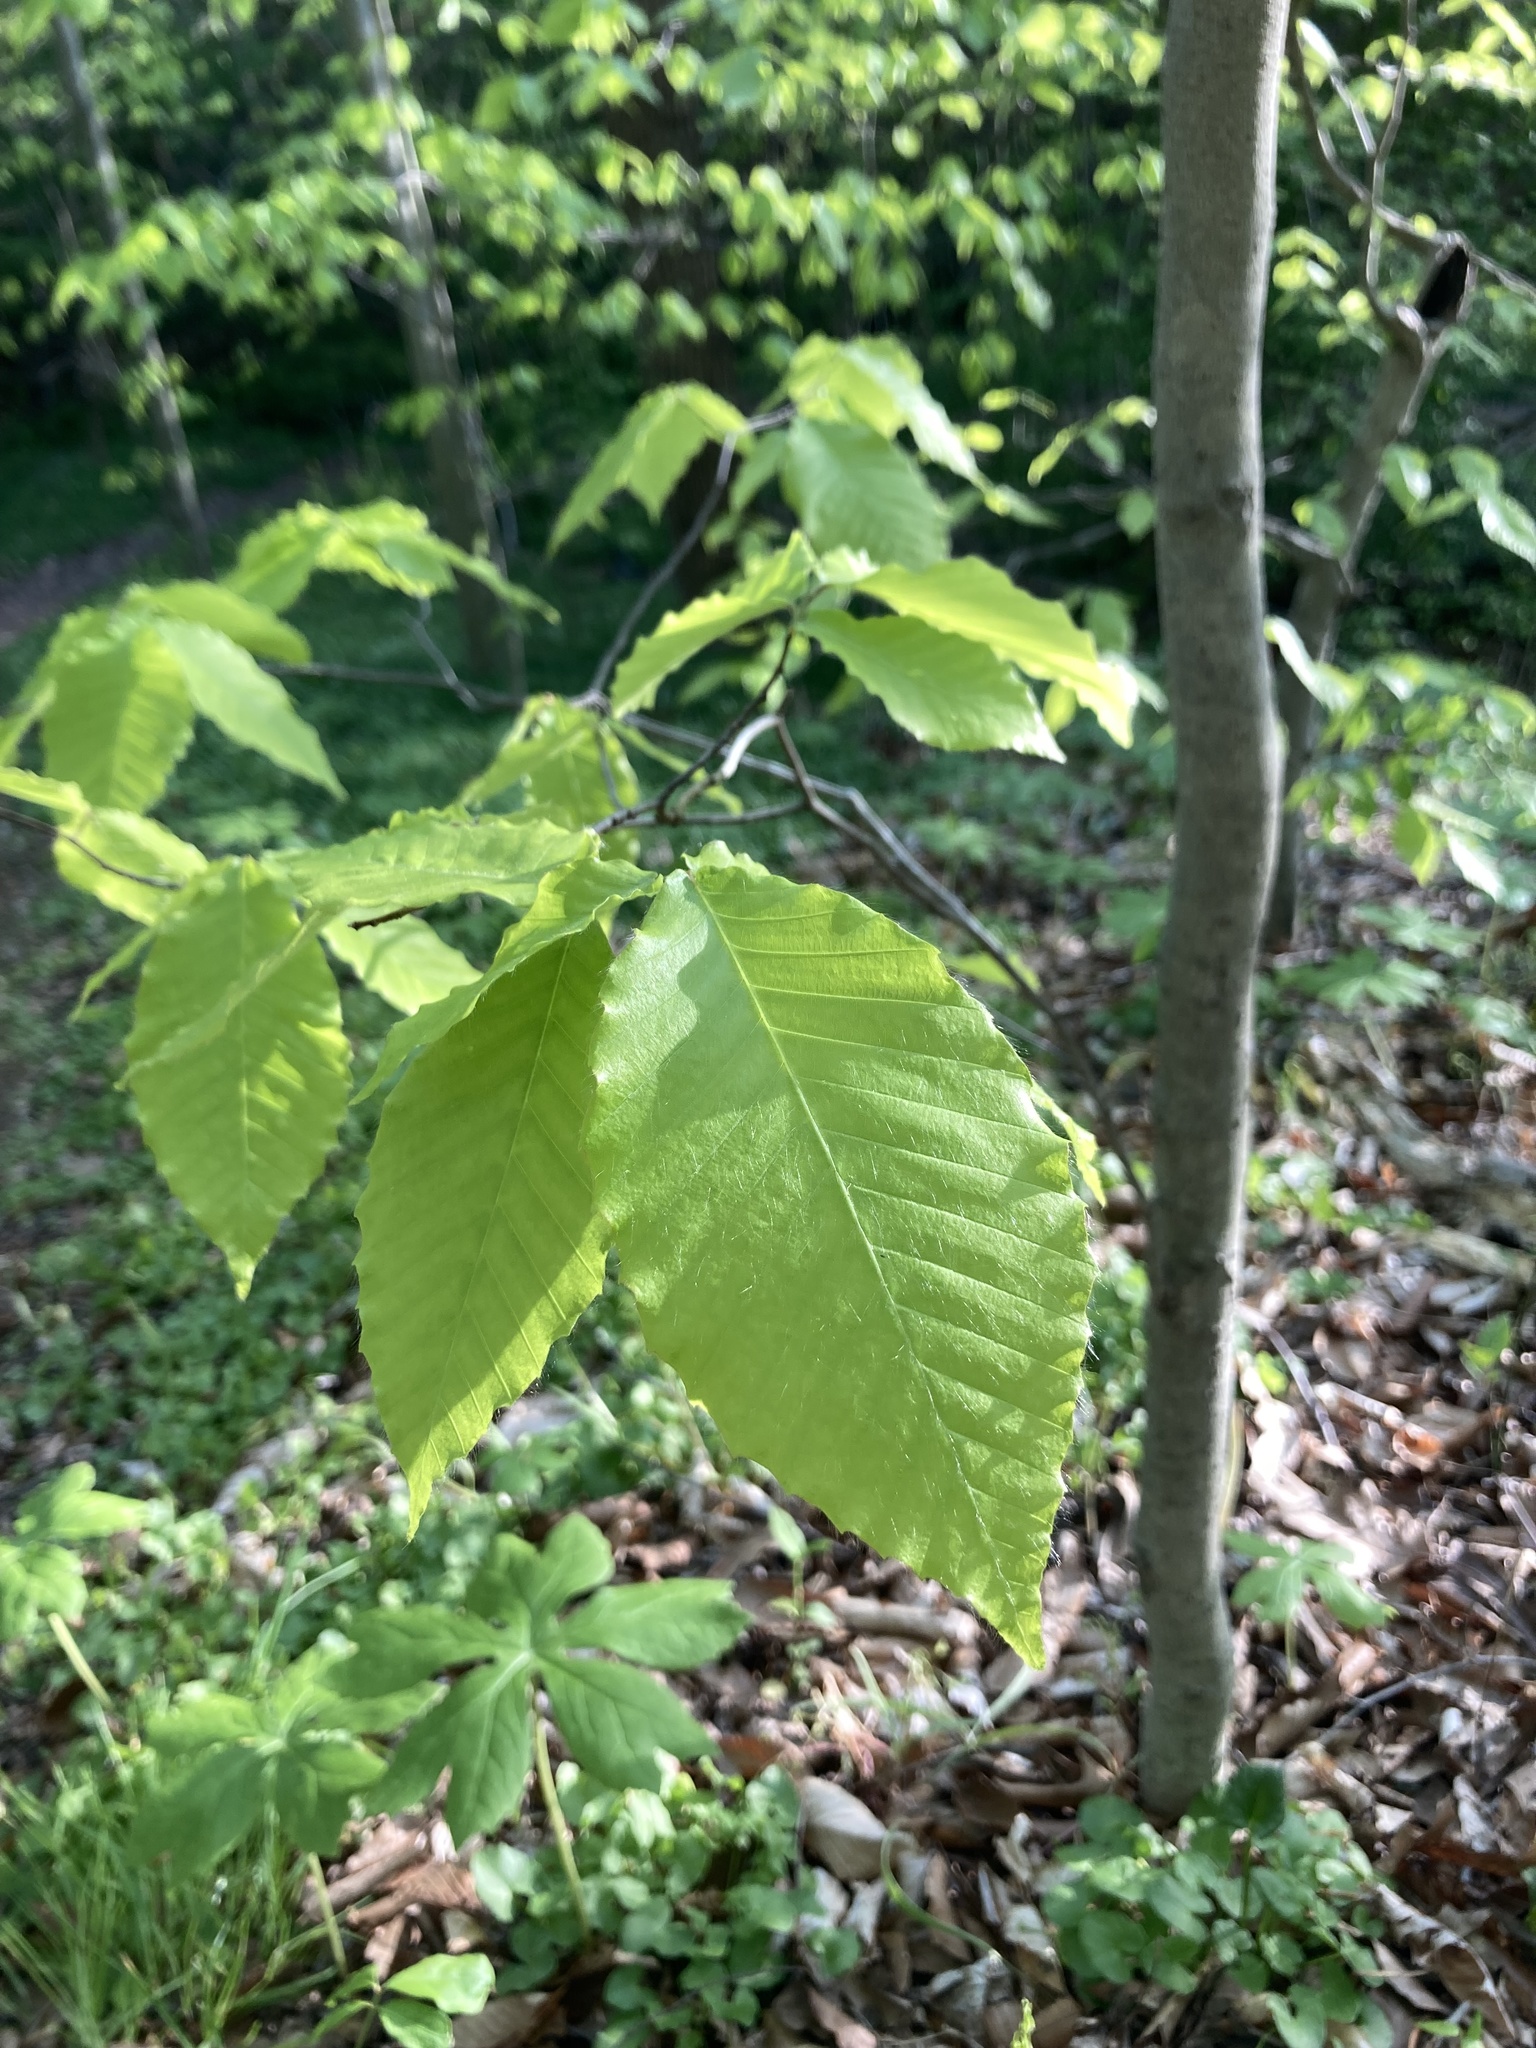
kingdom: Plantae
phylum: Tracheophyta
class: Magnoliopsida
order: Fagales
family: Fagaceae
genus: Fagus
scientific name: Fagus grandifolia
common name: American beech
